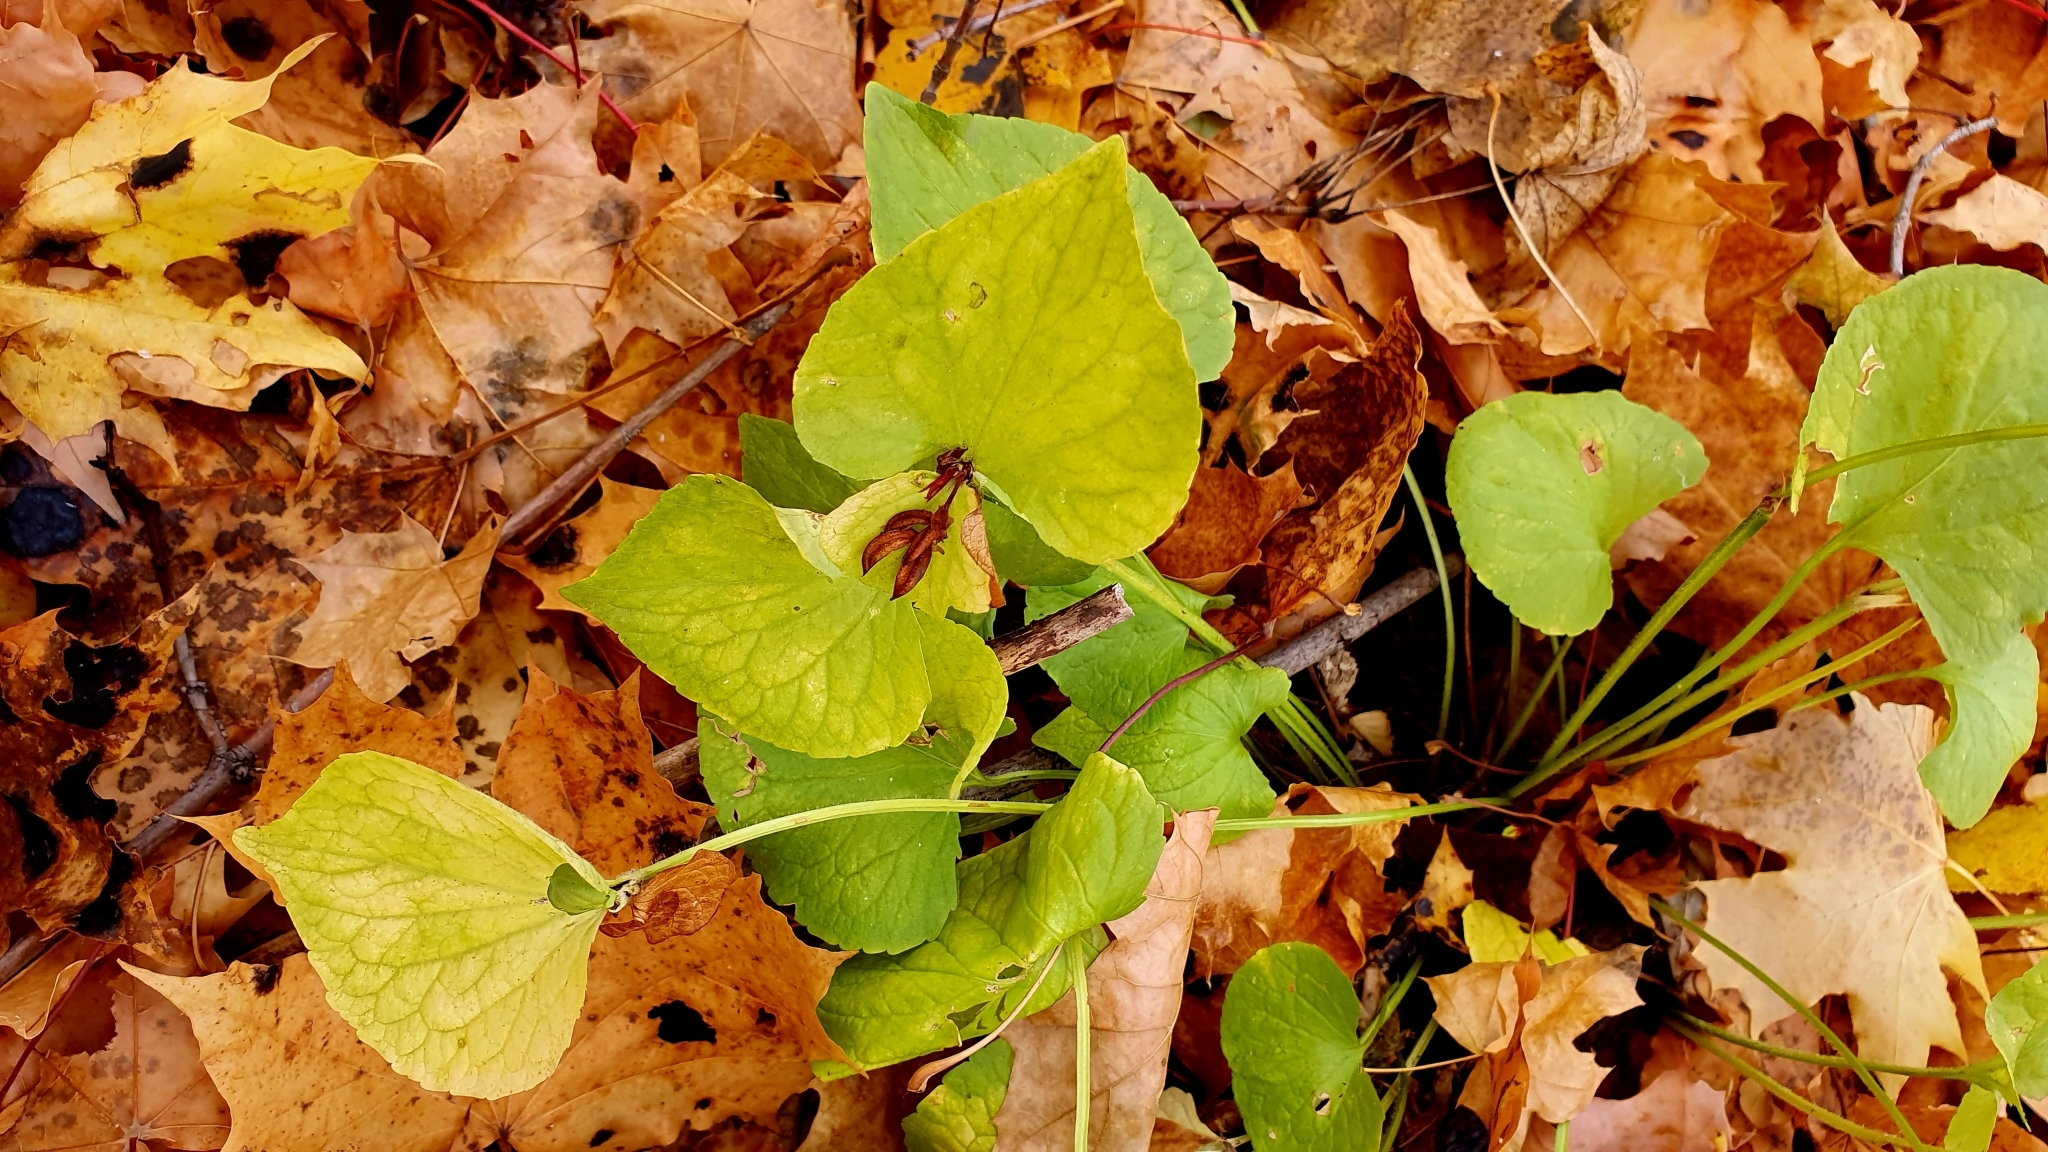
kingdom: Plantae
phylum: Tracheophyta
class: Magnoliopsida
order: Malpighiales
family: Violaceae
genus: Viola
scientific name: Viola mirabilis
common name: Wonder violet
